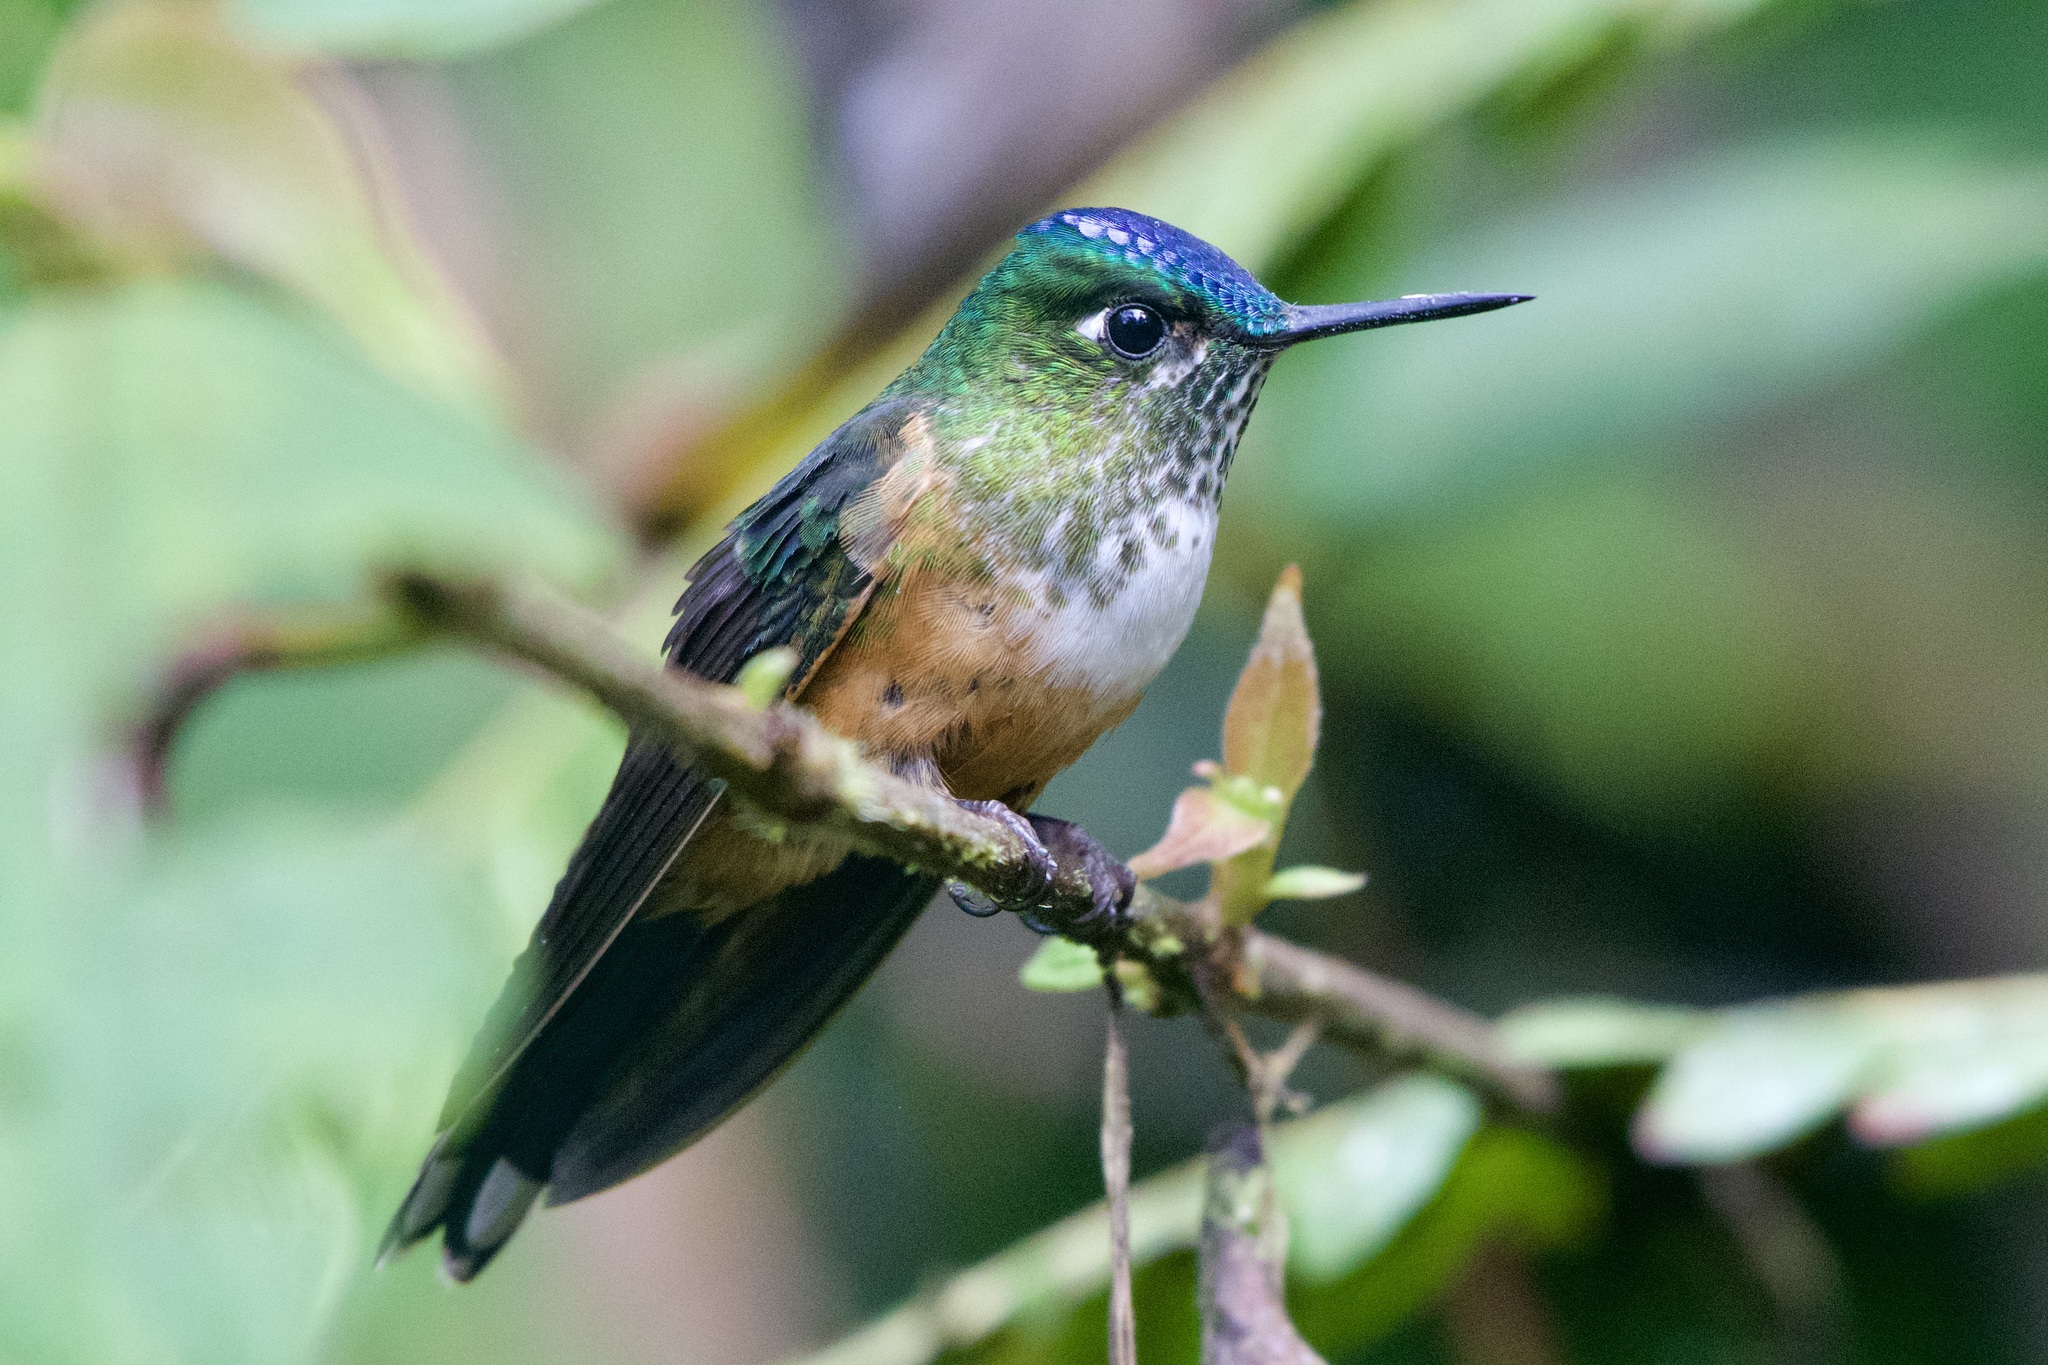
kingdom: Animalia
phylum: Chordata
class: Aves
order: Apodiformes
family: Trochilidae
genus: Aglaiocercus
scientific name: Aglaiocercus coelestis
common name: Violet-tailed sylph
